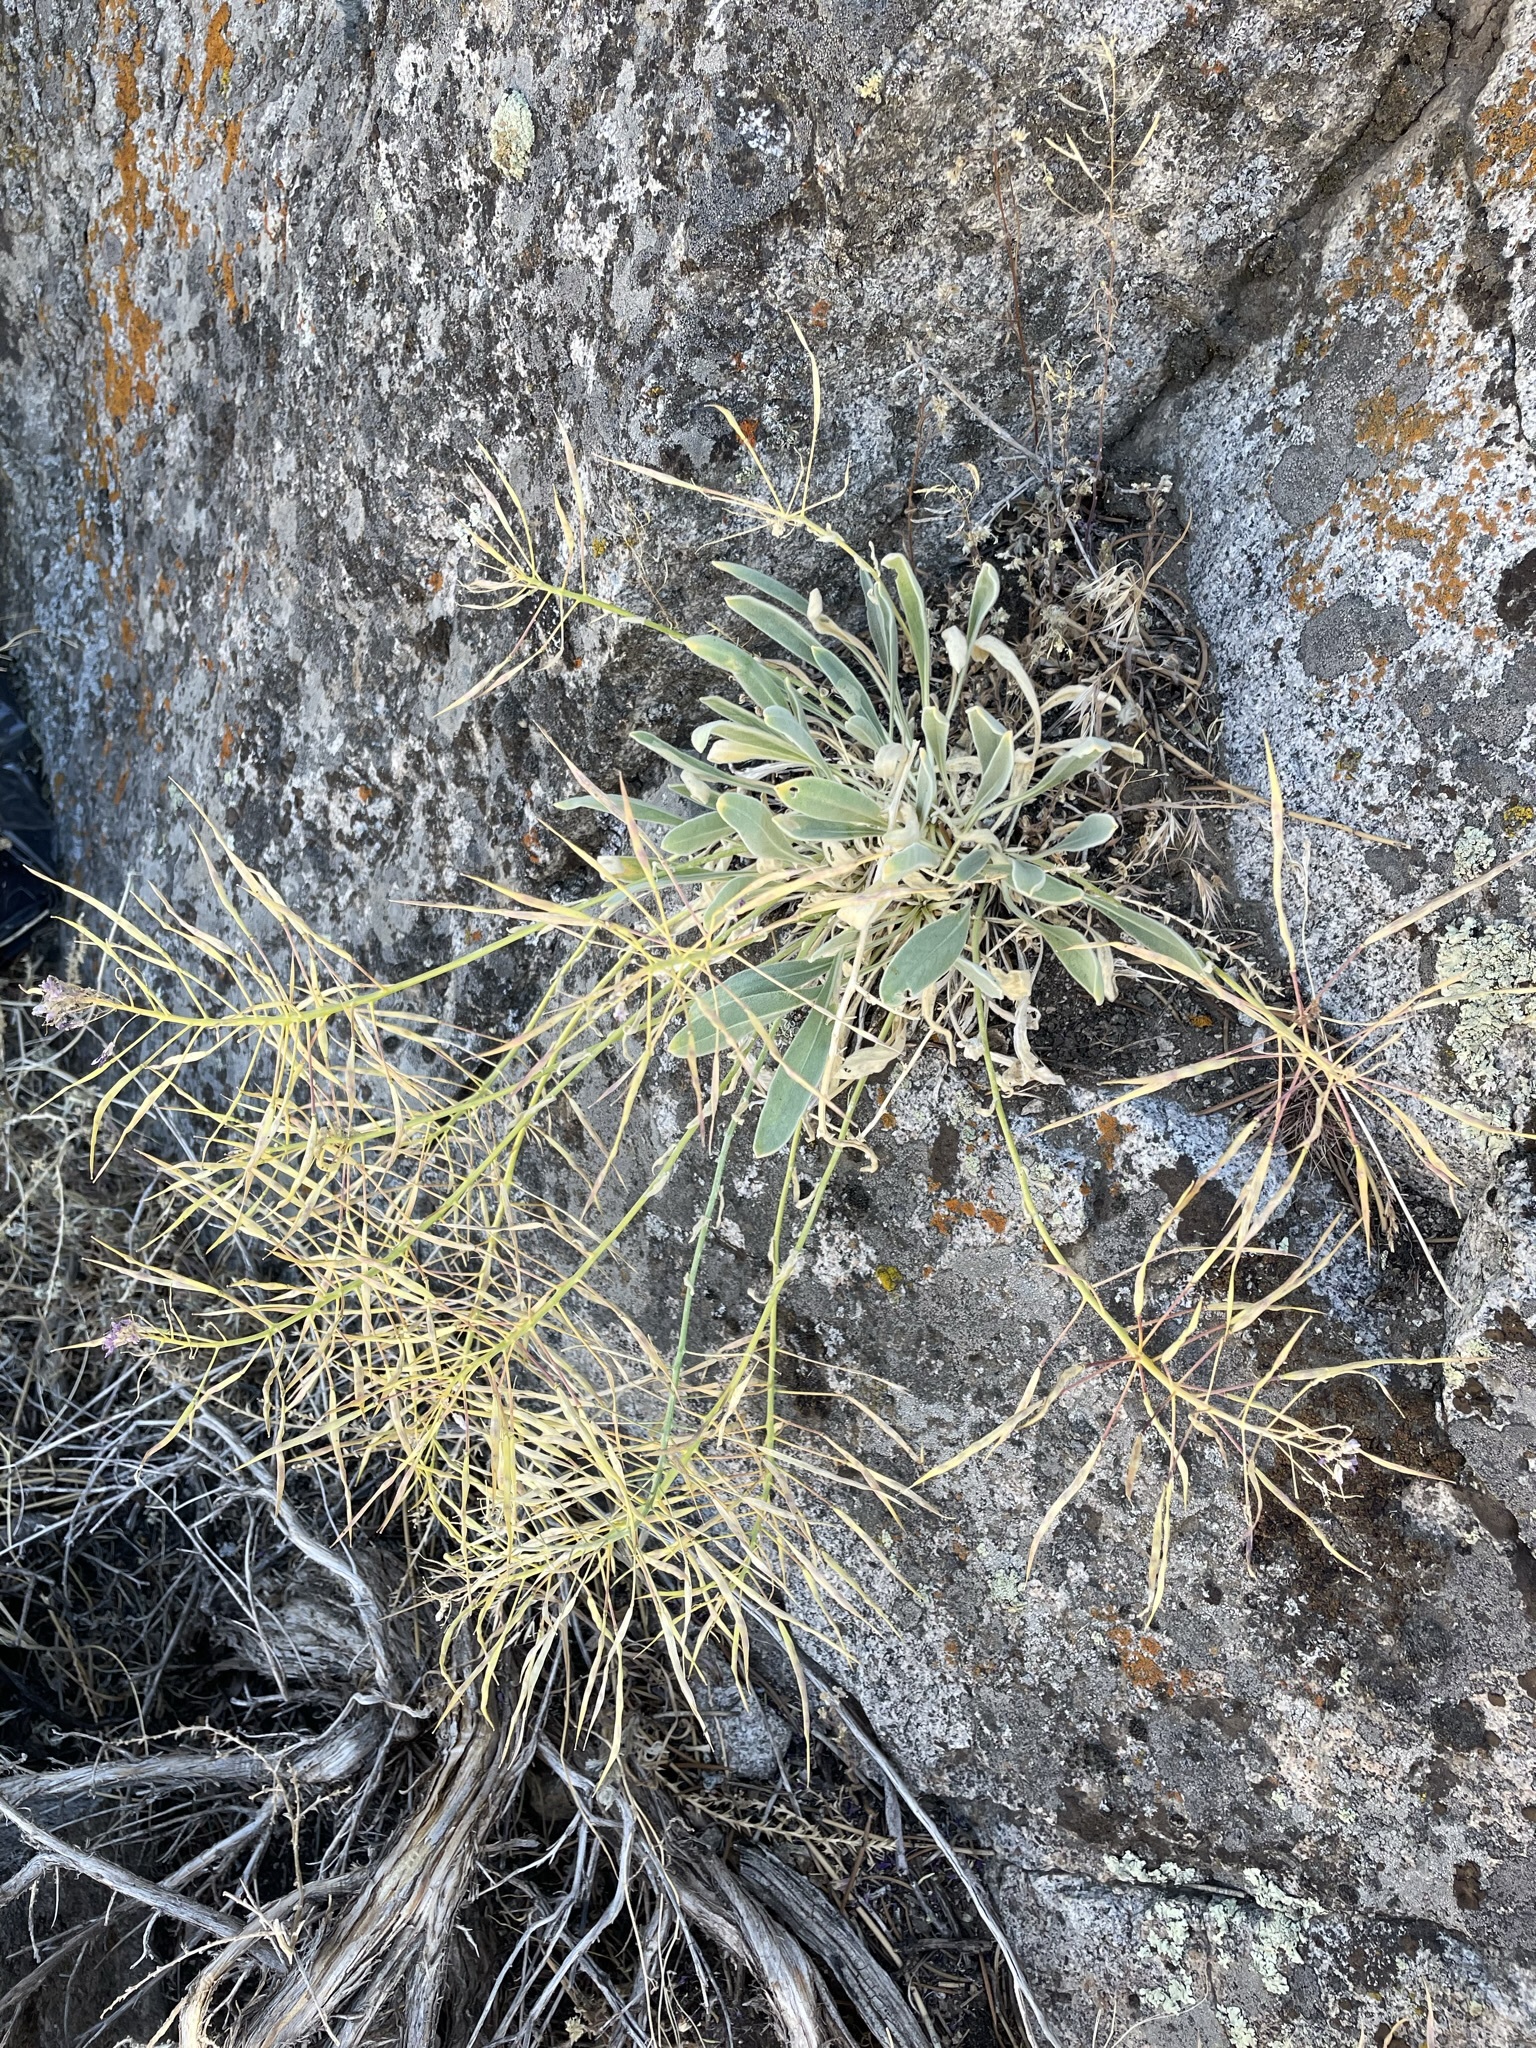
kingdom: Plantae
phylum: Tracheophyta
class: Magnoliopsida
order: Brassicales
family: Brassicaceae
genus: Phoenicaulis
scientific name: Phoenicaulis cheiranthoides
